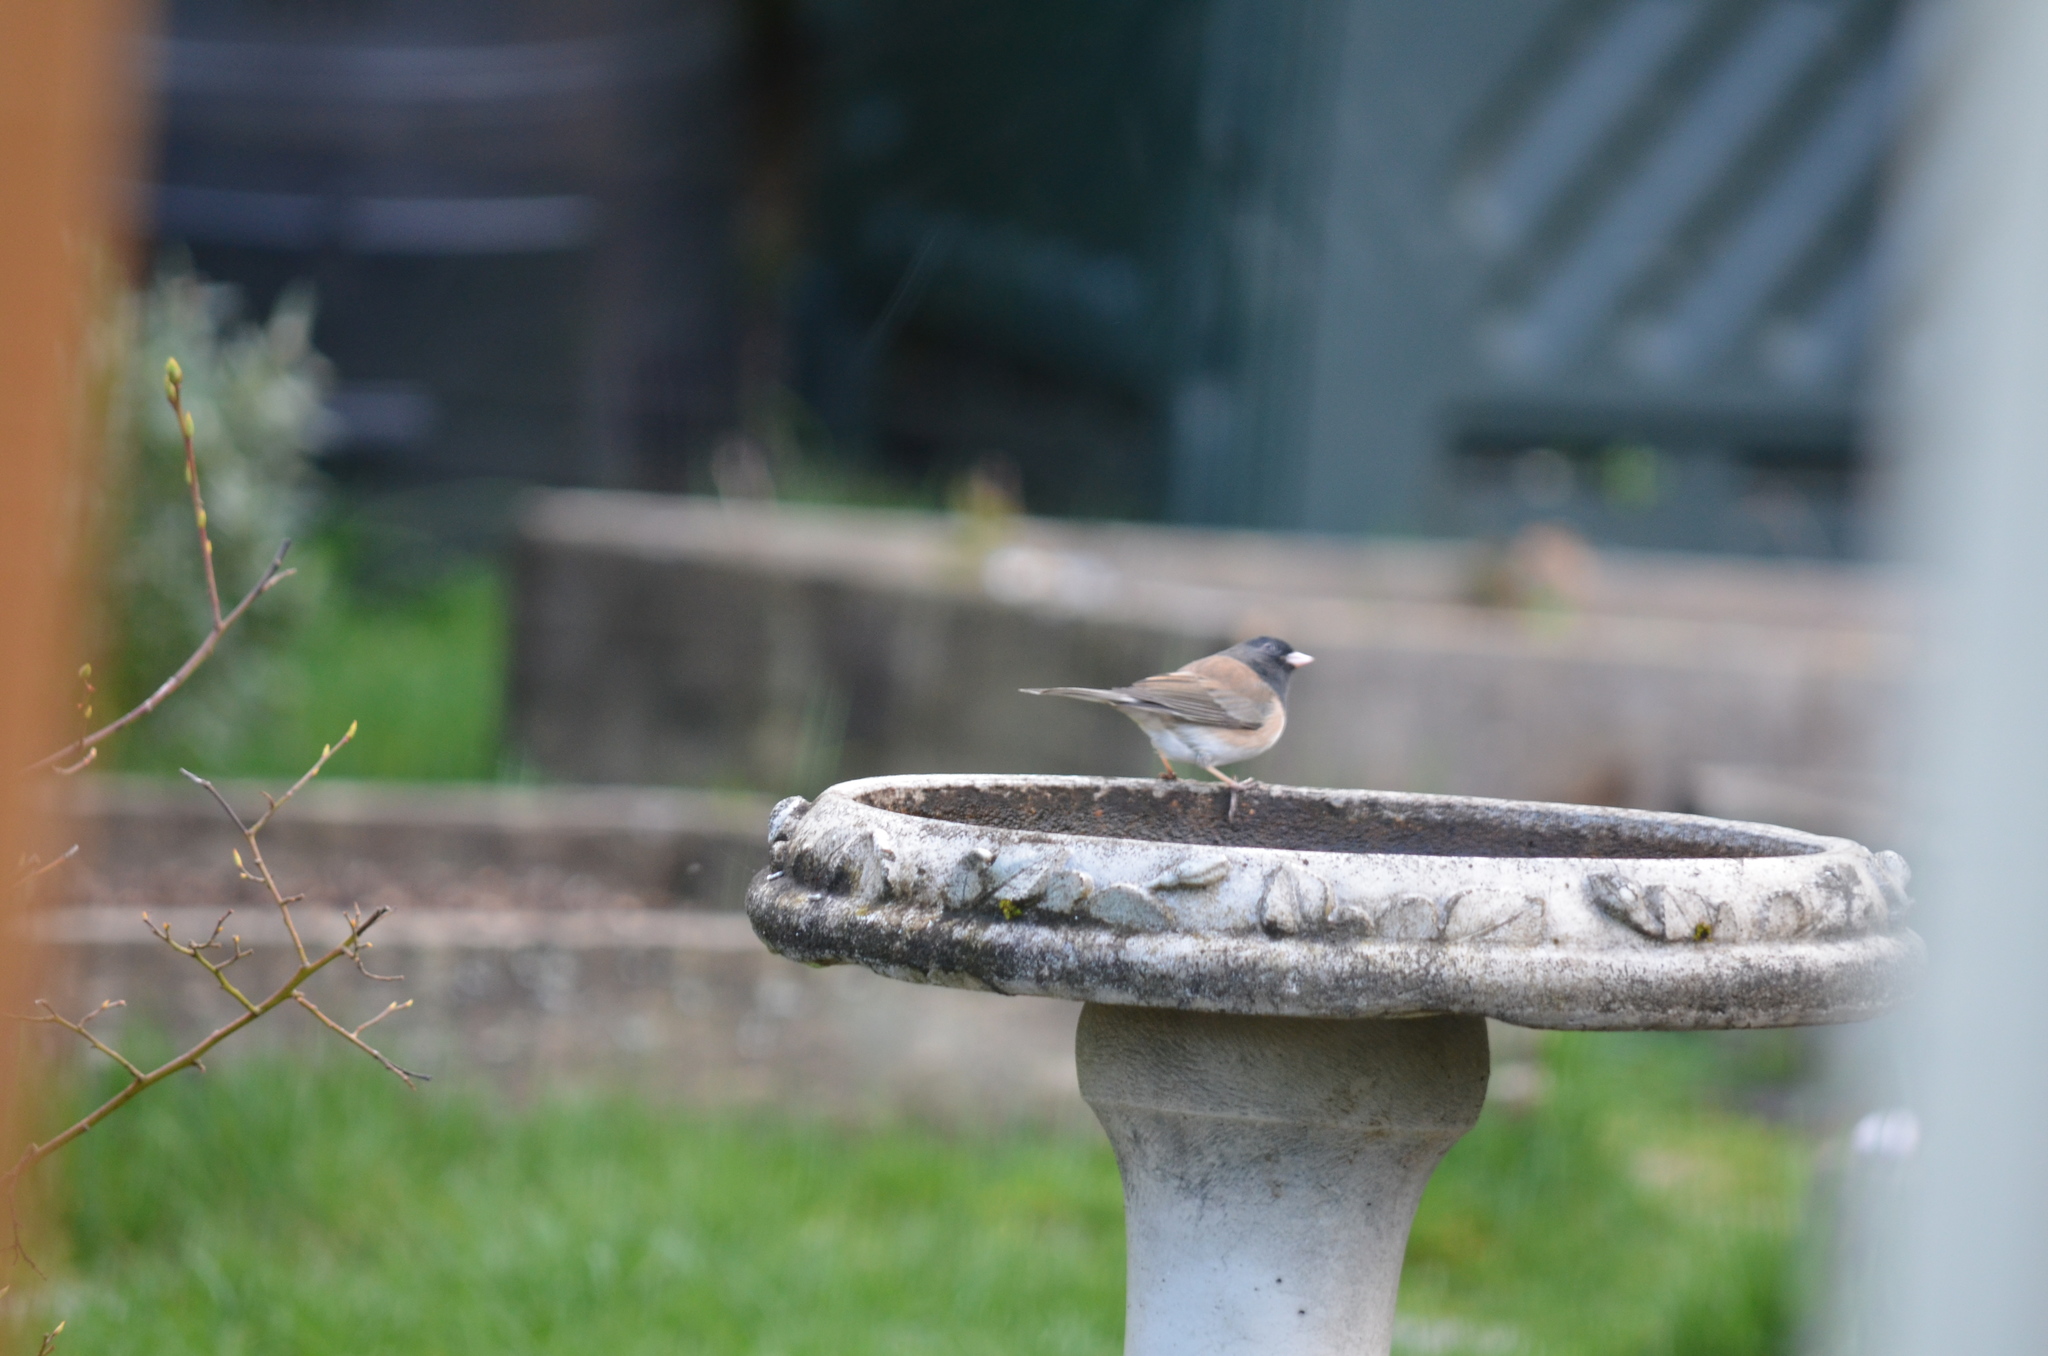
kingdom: Animalia
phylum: Chordata
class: Aves
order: Passeriformes
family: Passerellidae
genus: Junco
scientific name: Junco hyemalis
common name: Dark-eyed junco
